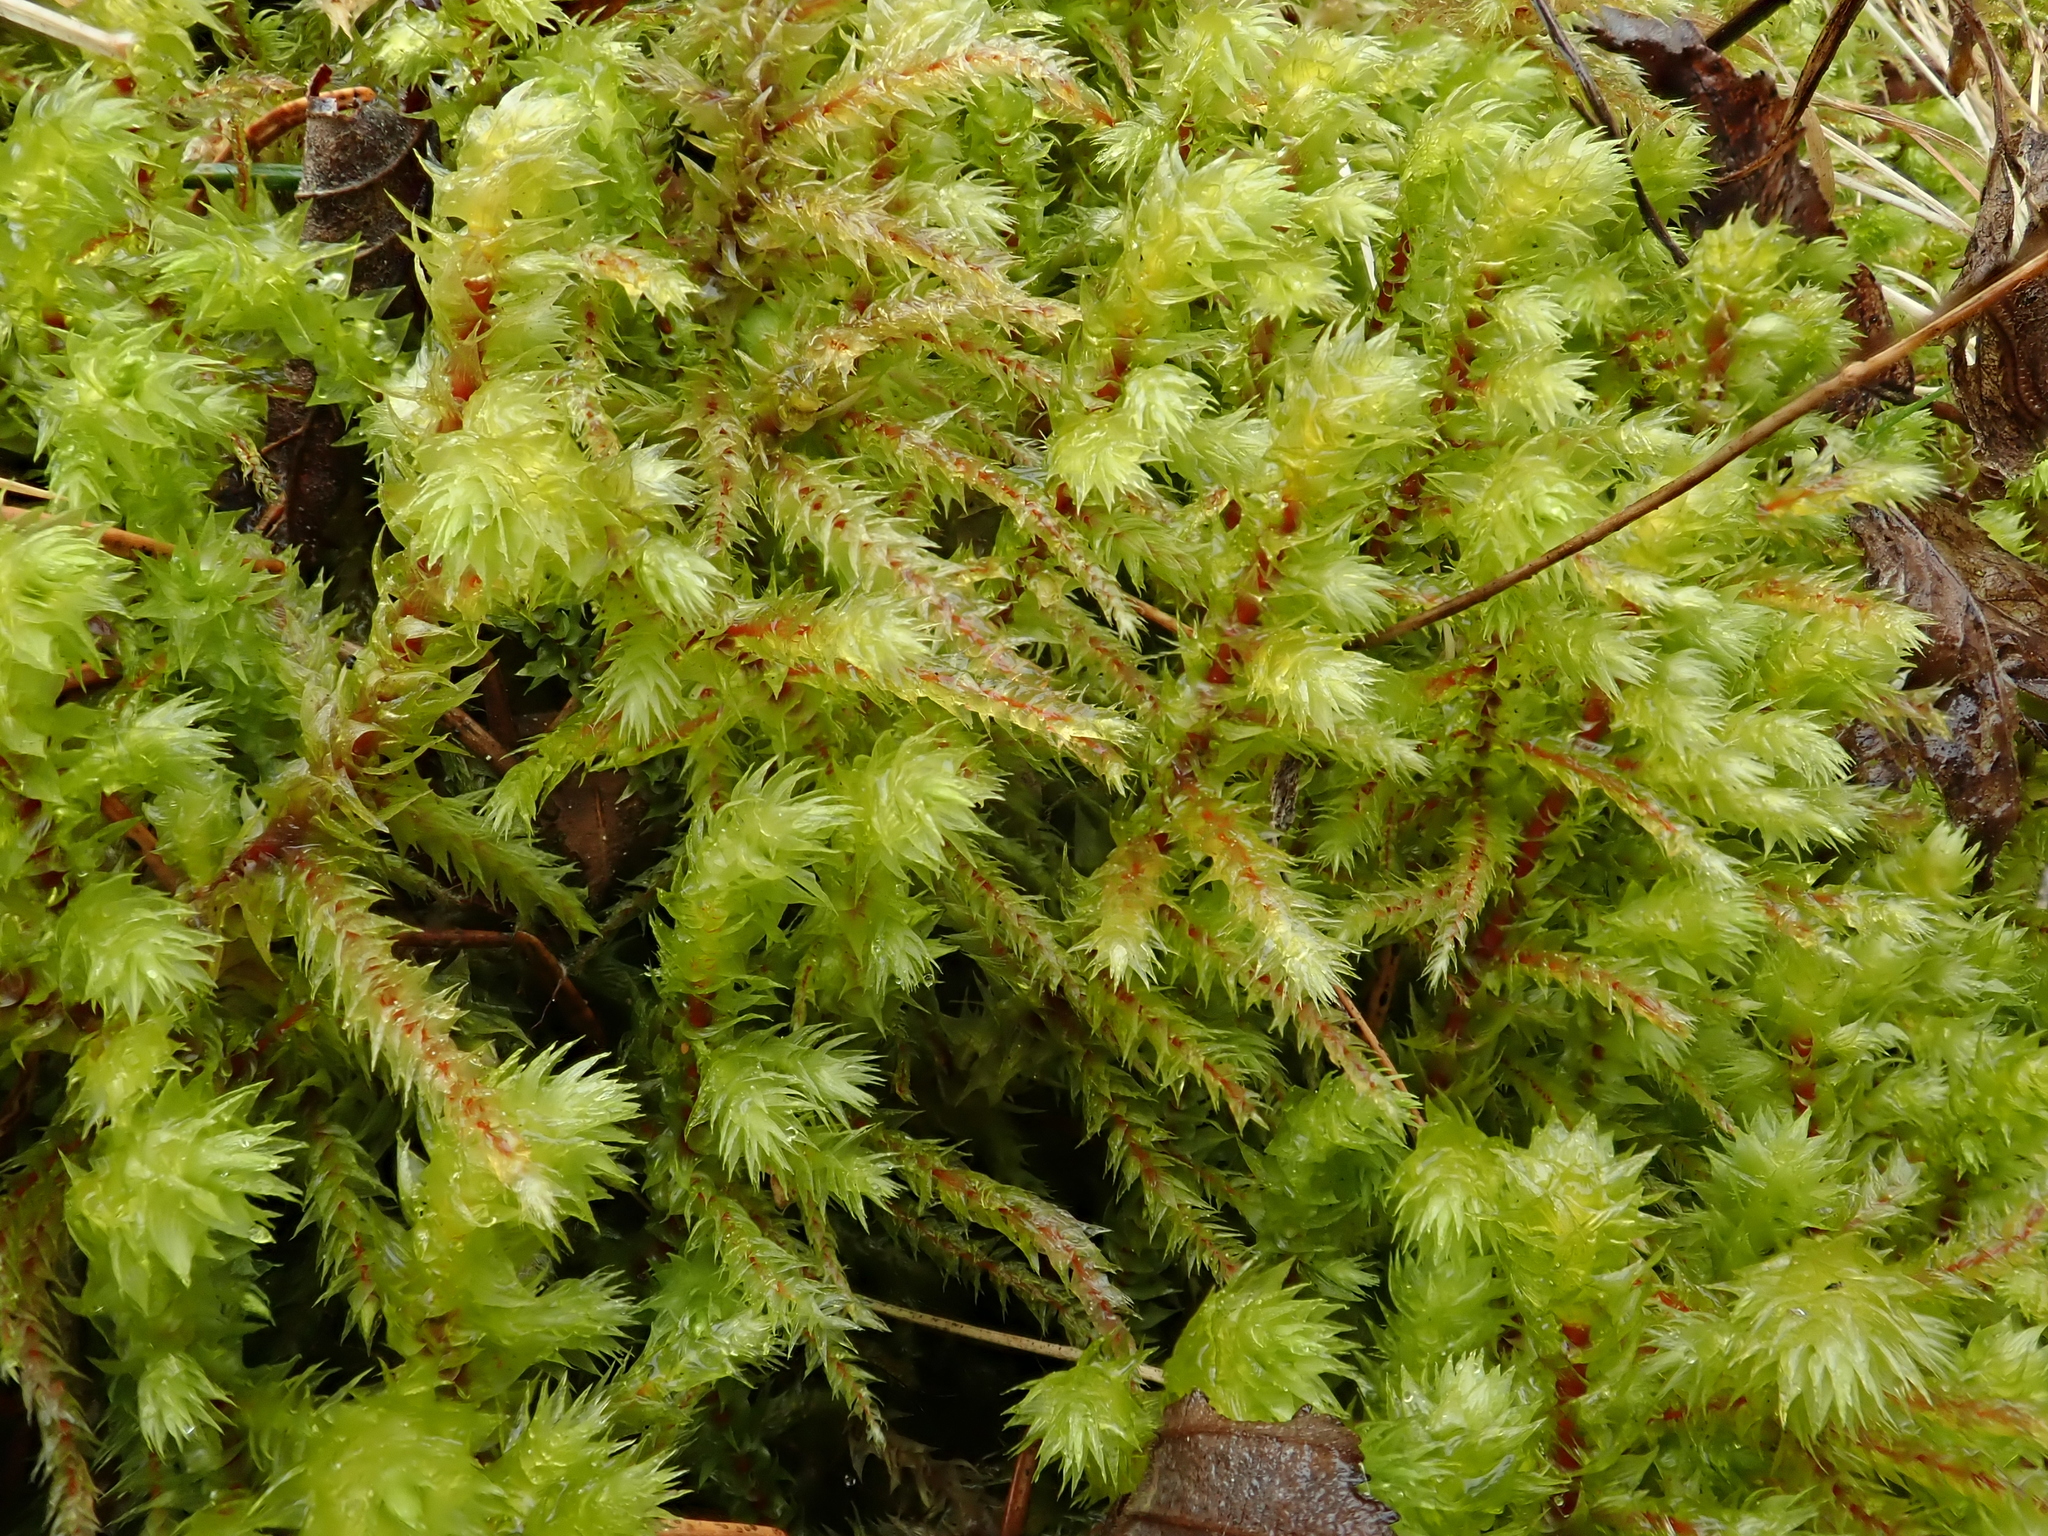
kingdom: Plantae
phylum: Bryophyta
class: Bryopsida
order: Hypnales
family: Hylocomiaceae
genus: Hylocomiadelphus
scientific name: Hylocomiadelphus triquetrus
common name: Rough goose neck moss
